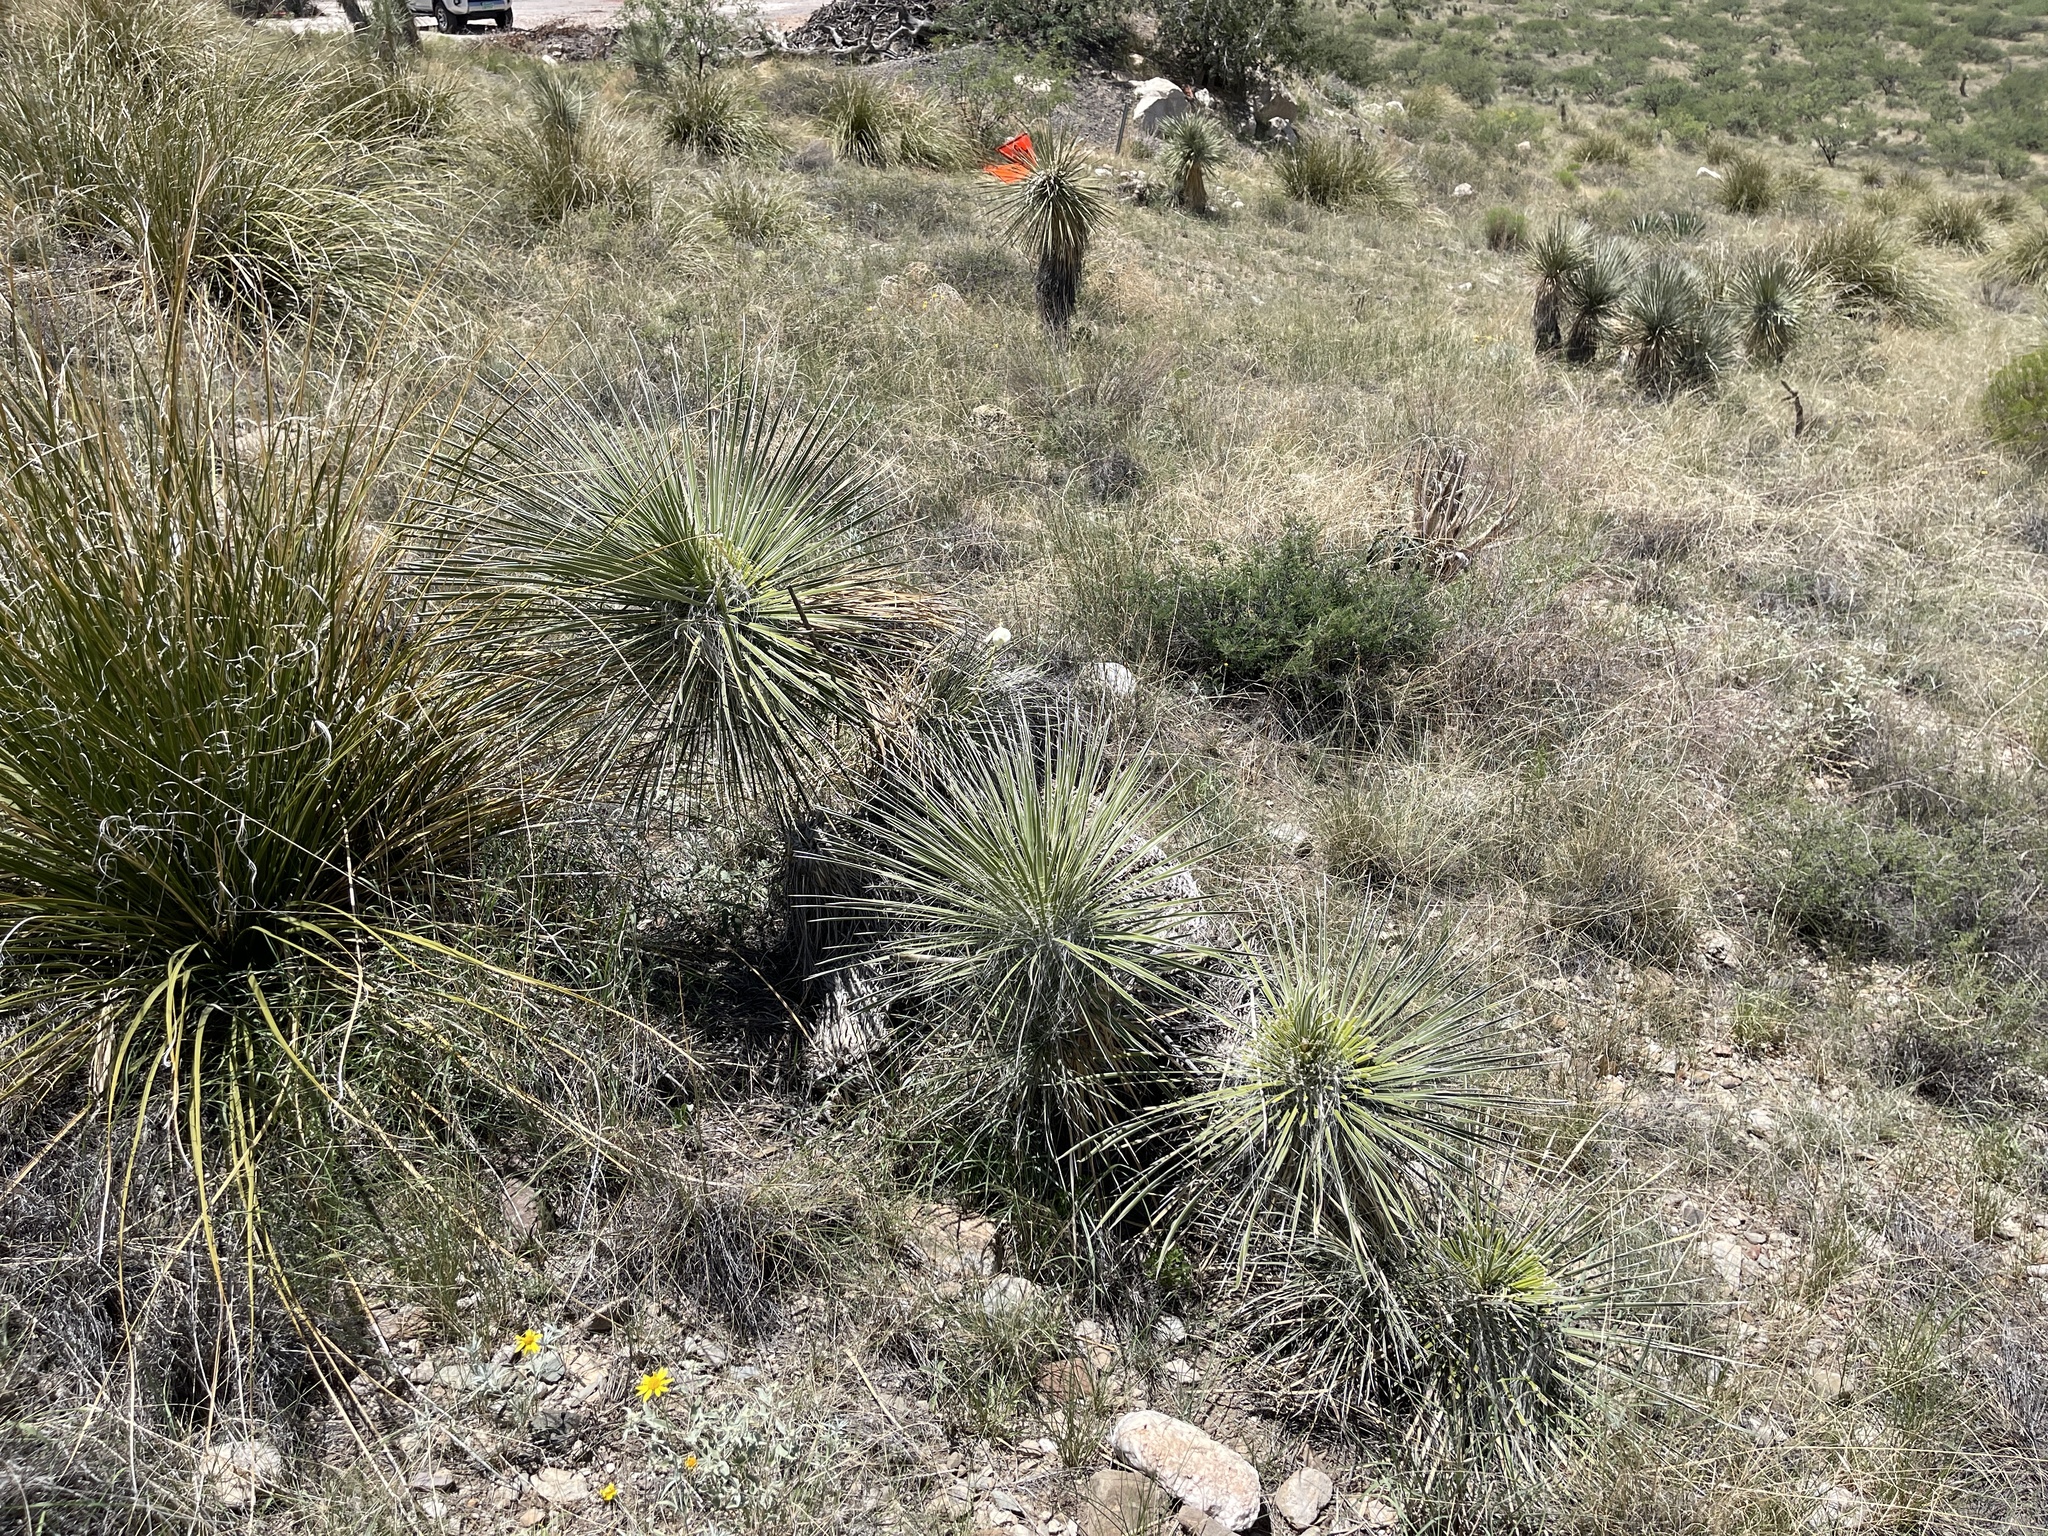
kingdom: Plantae
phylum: Tracheophyta
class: Liliopsida
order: Asparagales
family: Asparagaceae
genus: Yucca
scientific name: Yucca elata
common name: Palmella
